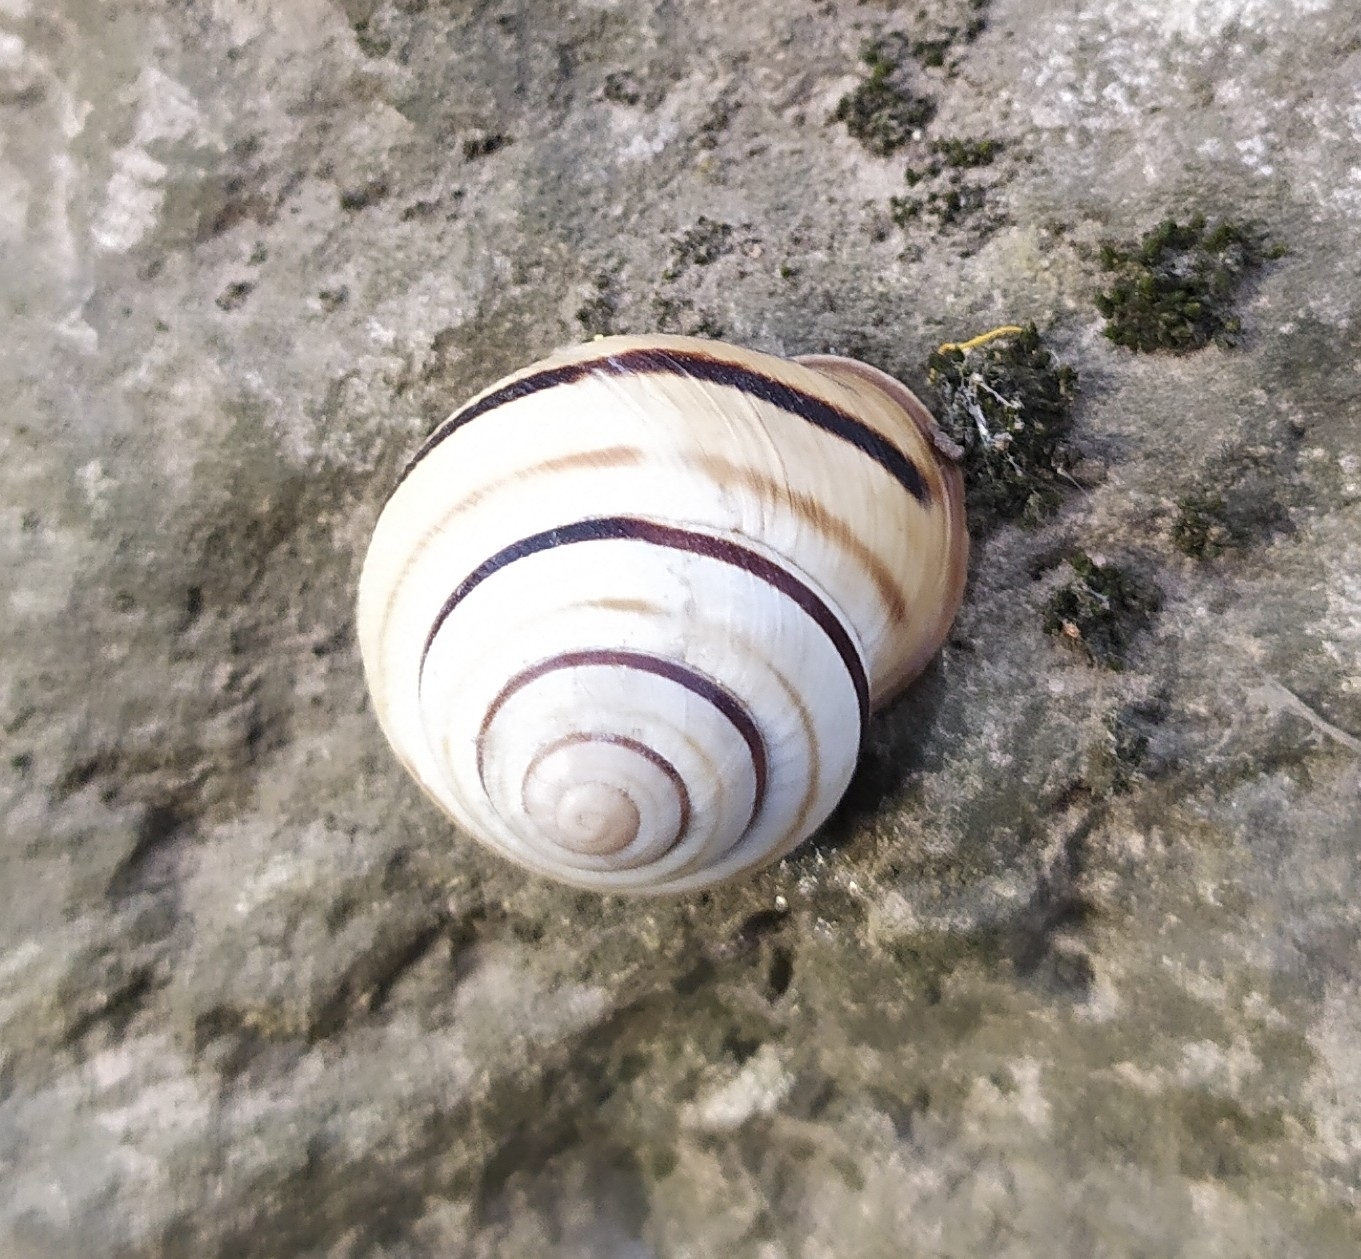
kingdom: Animalia
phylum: Mollusca
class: Gastropoda
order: Stylommatophora
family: Helicidae
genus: Caucasotachea
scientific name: Caucasotachea vindobonensis
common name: European helicid land snail
